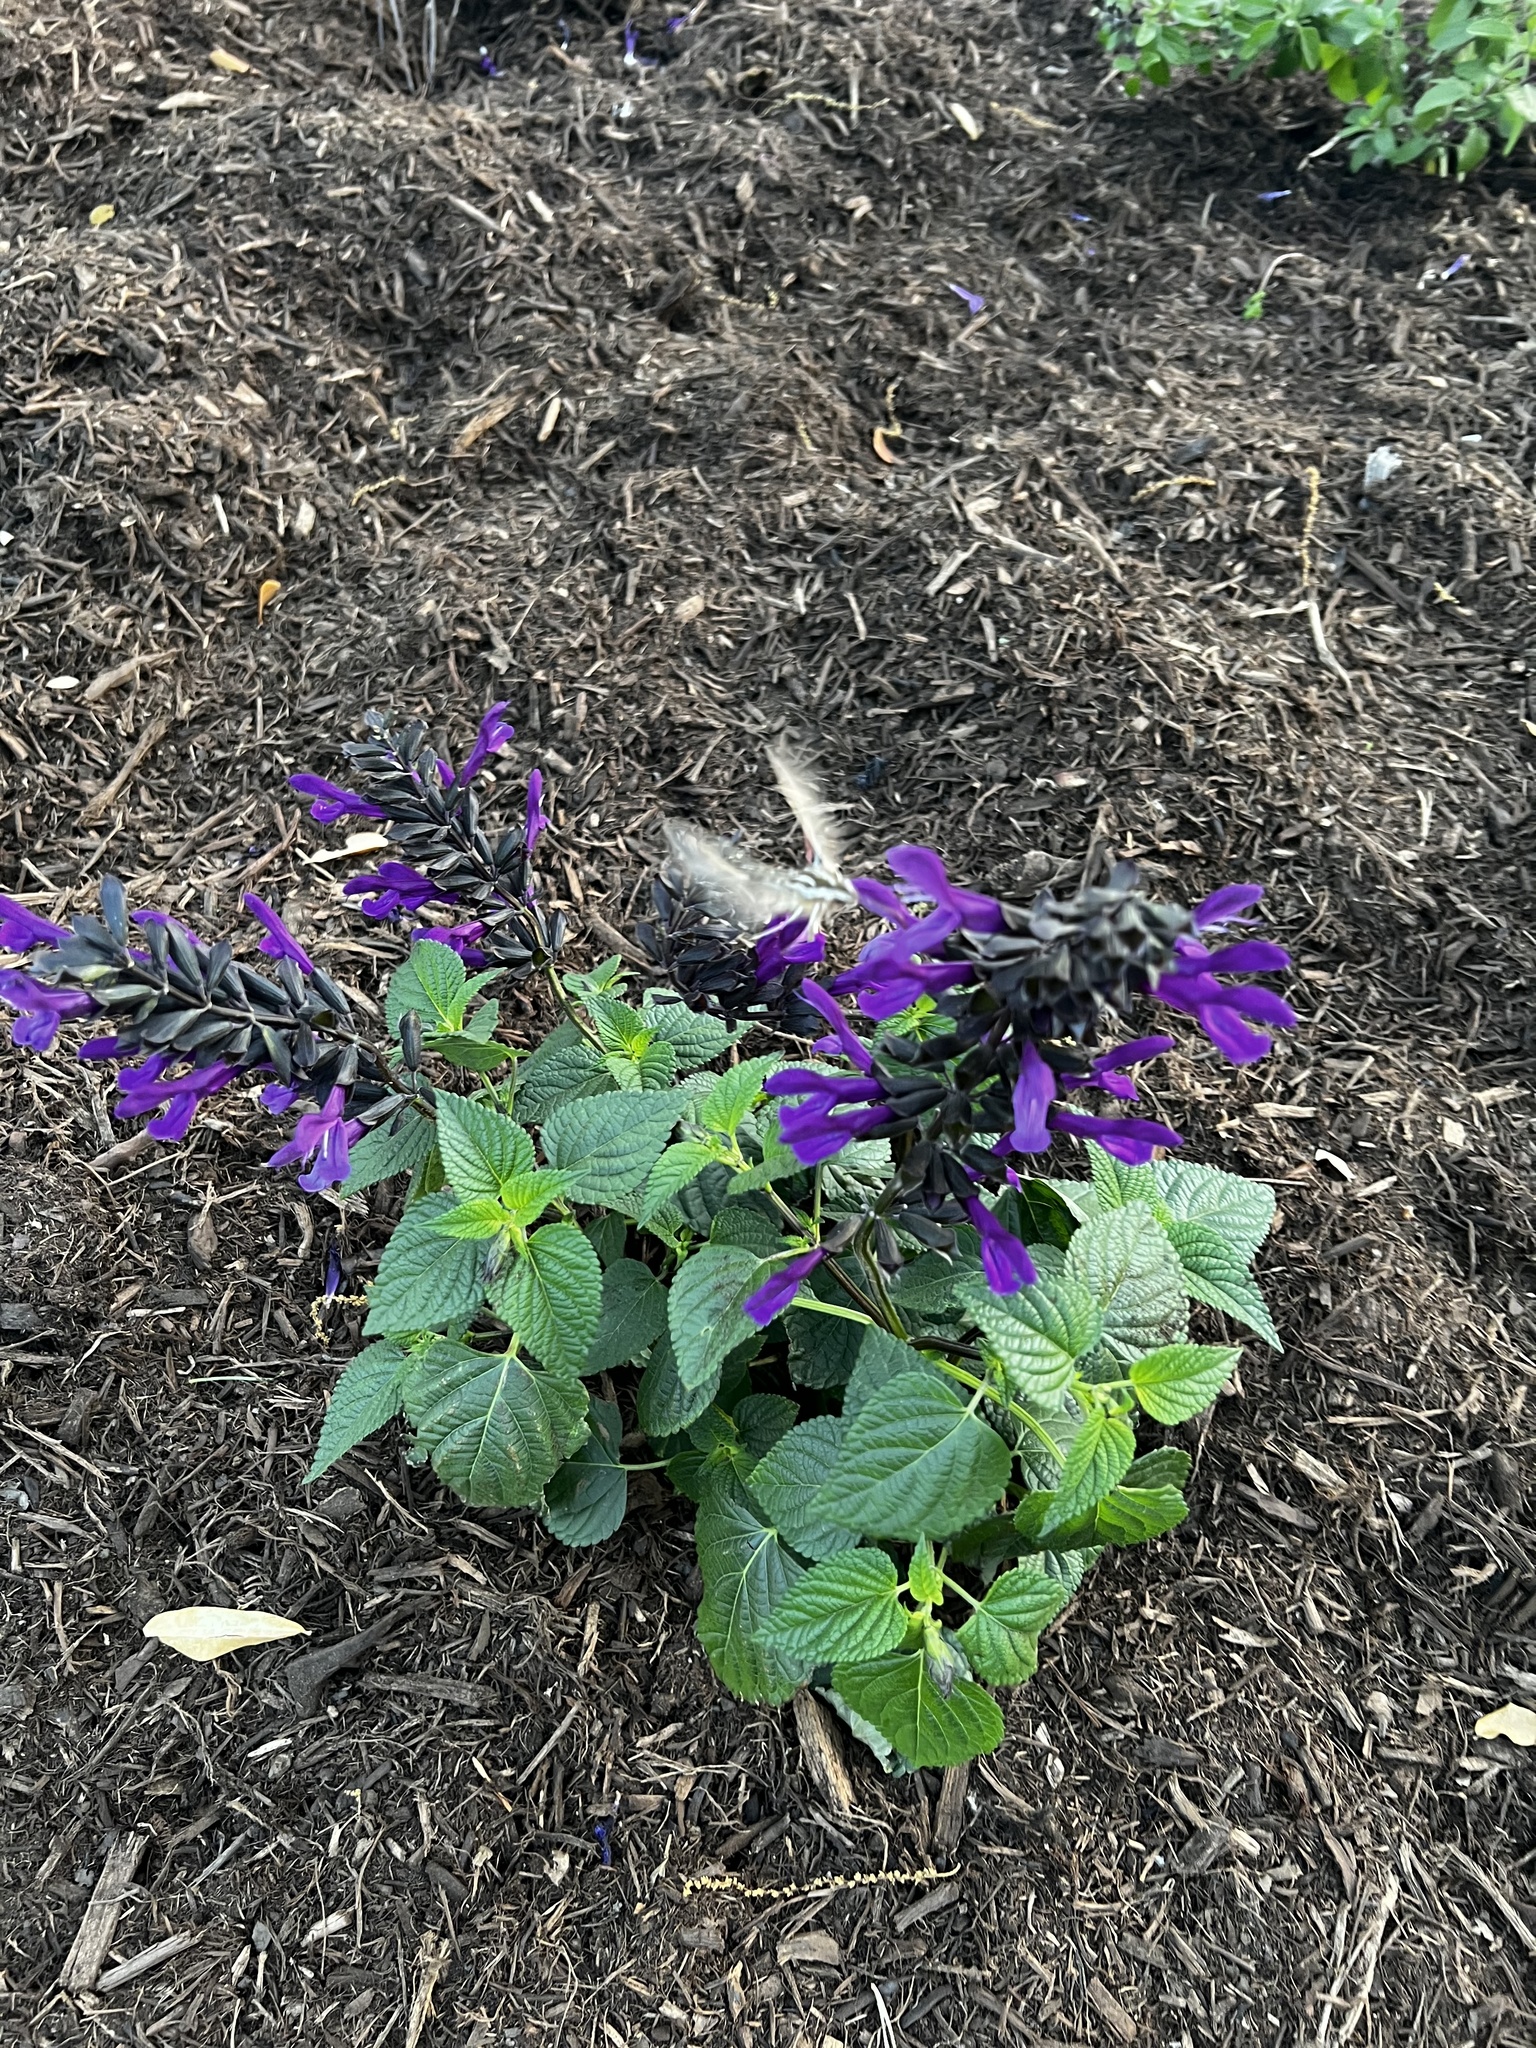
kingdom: Animalia
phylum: Arthropoda
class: Insecta
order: Lepidoptera
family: Sphingidae
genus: Hyles
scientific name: Hyles lineata
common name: White-lined sphinx
